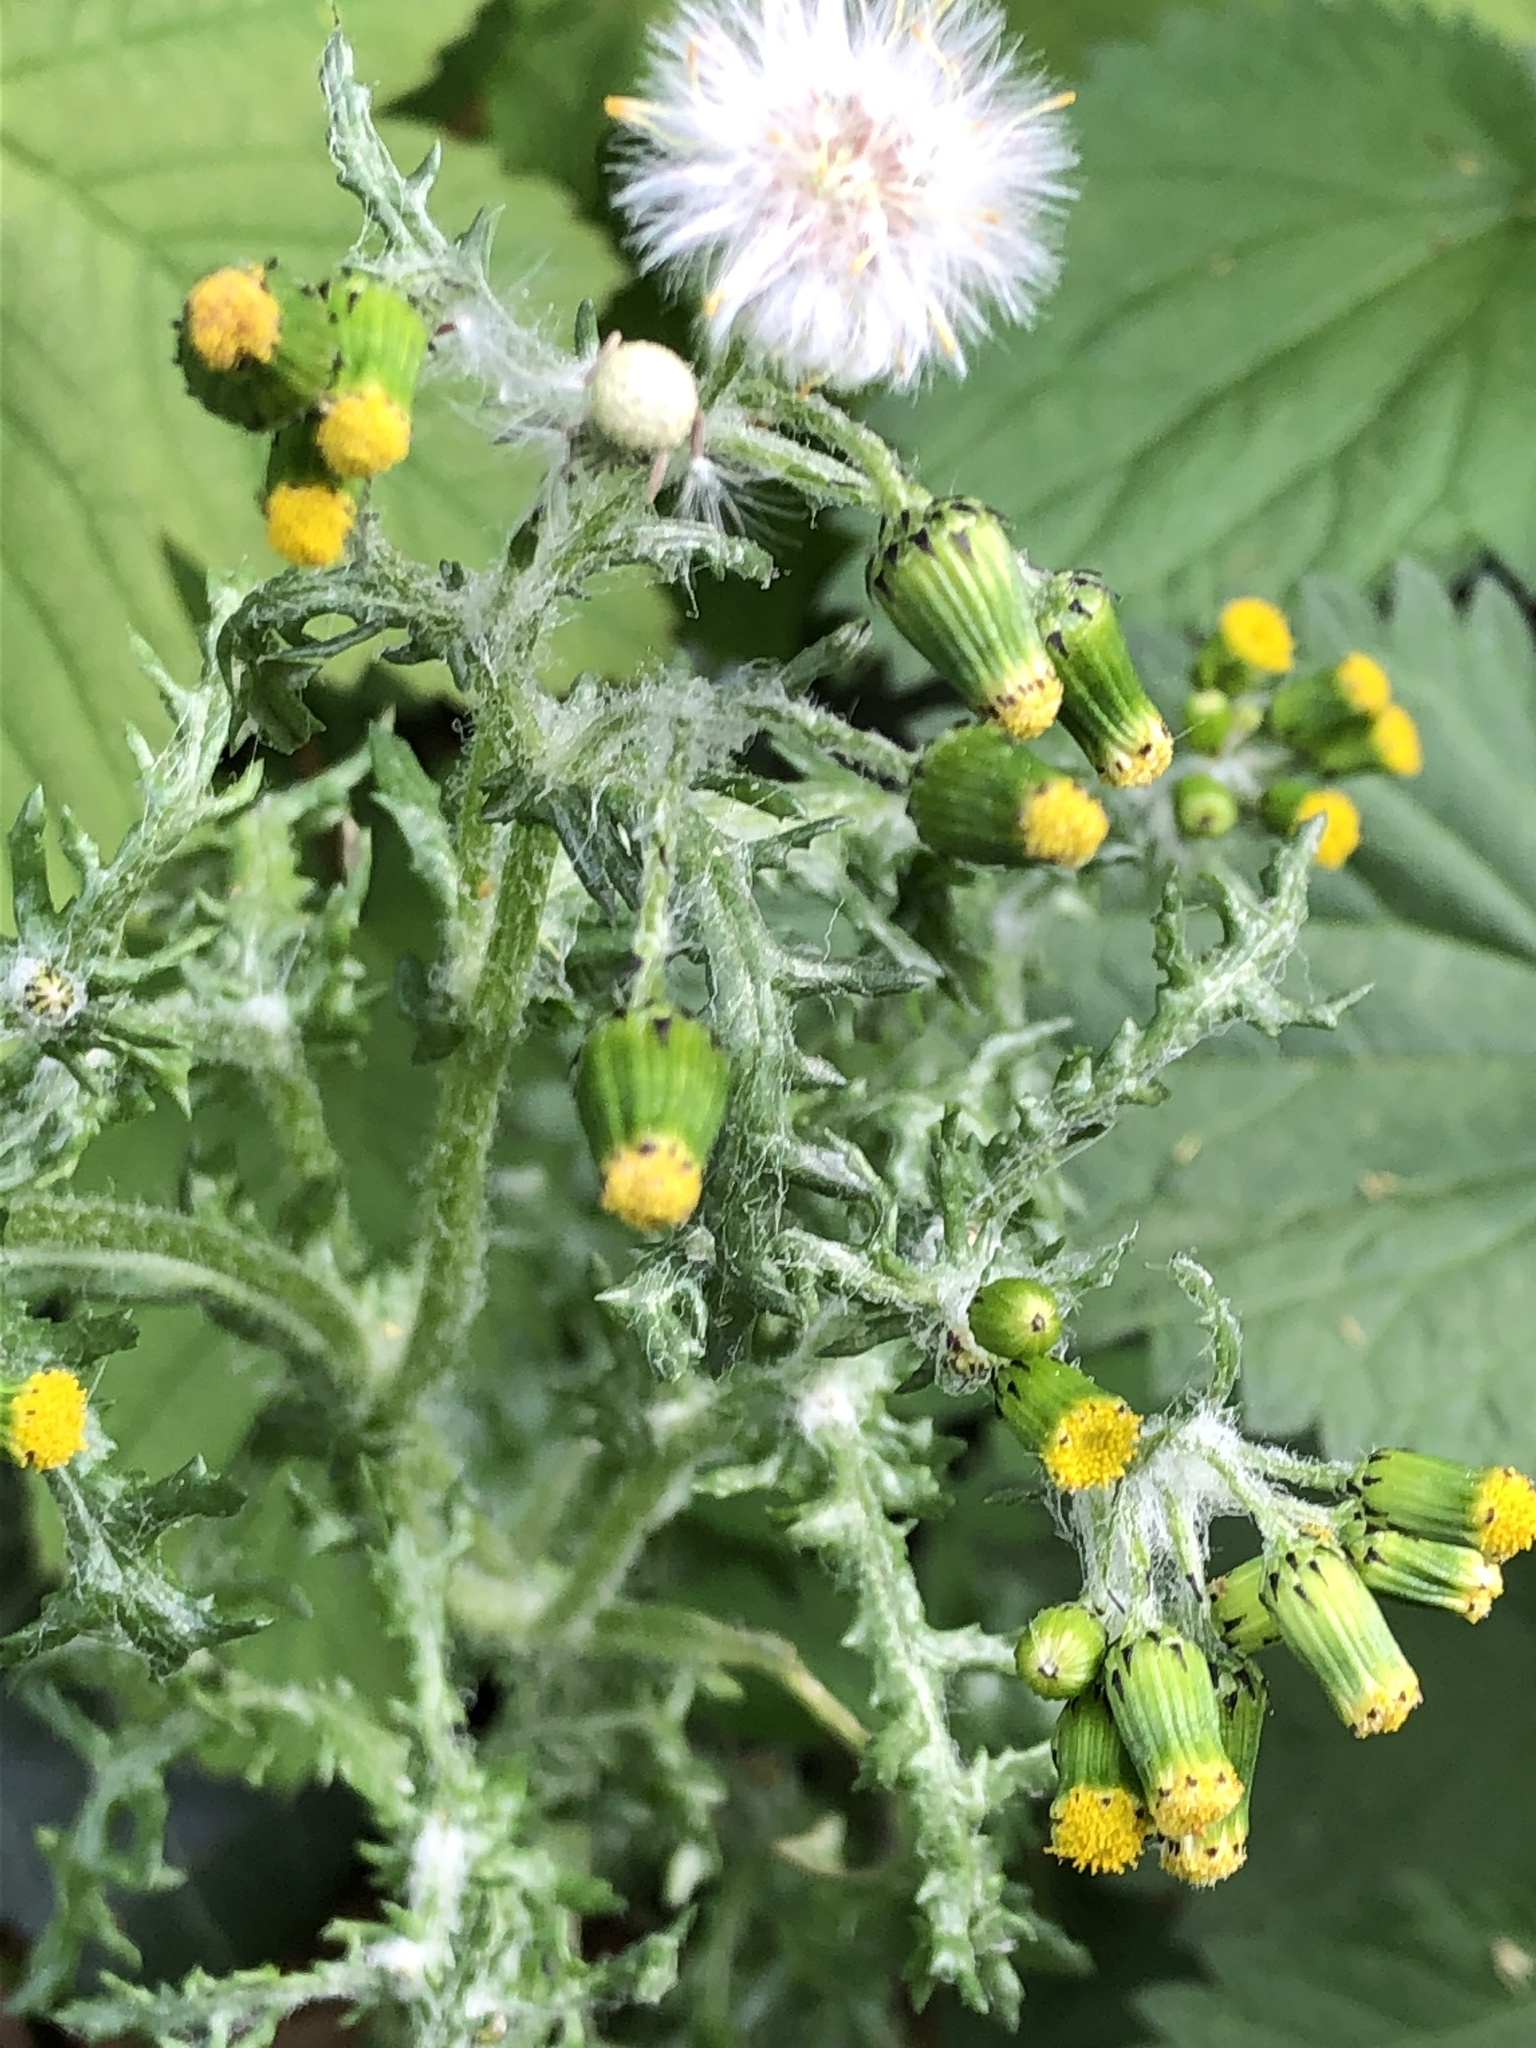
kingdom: Plantae
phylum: Tracheophyta
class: Magnoliopsida
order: Asterales
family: Asteraceae
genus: Senecio
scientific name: Senecio vulgaris
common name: Old-man-in-the-spring
